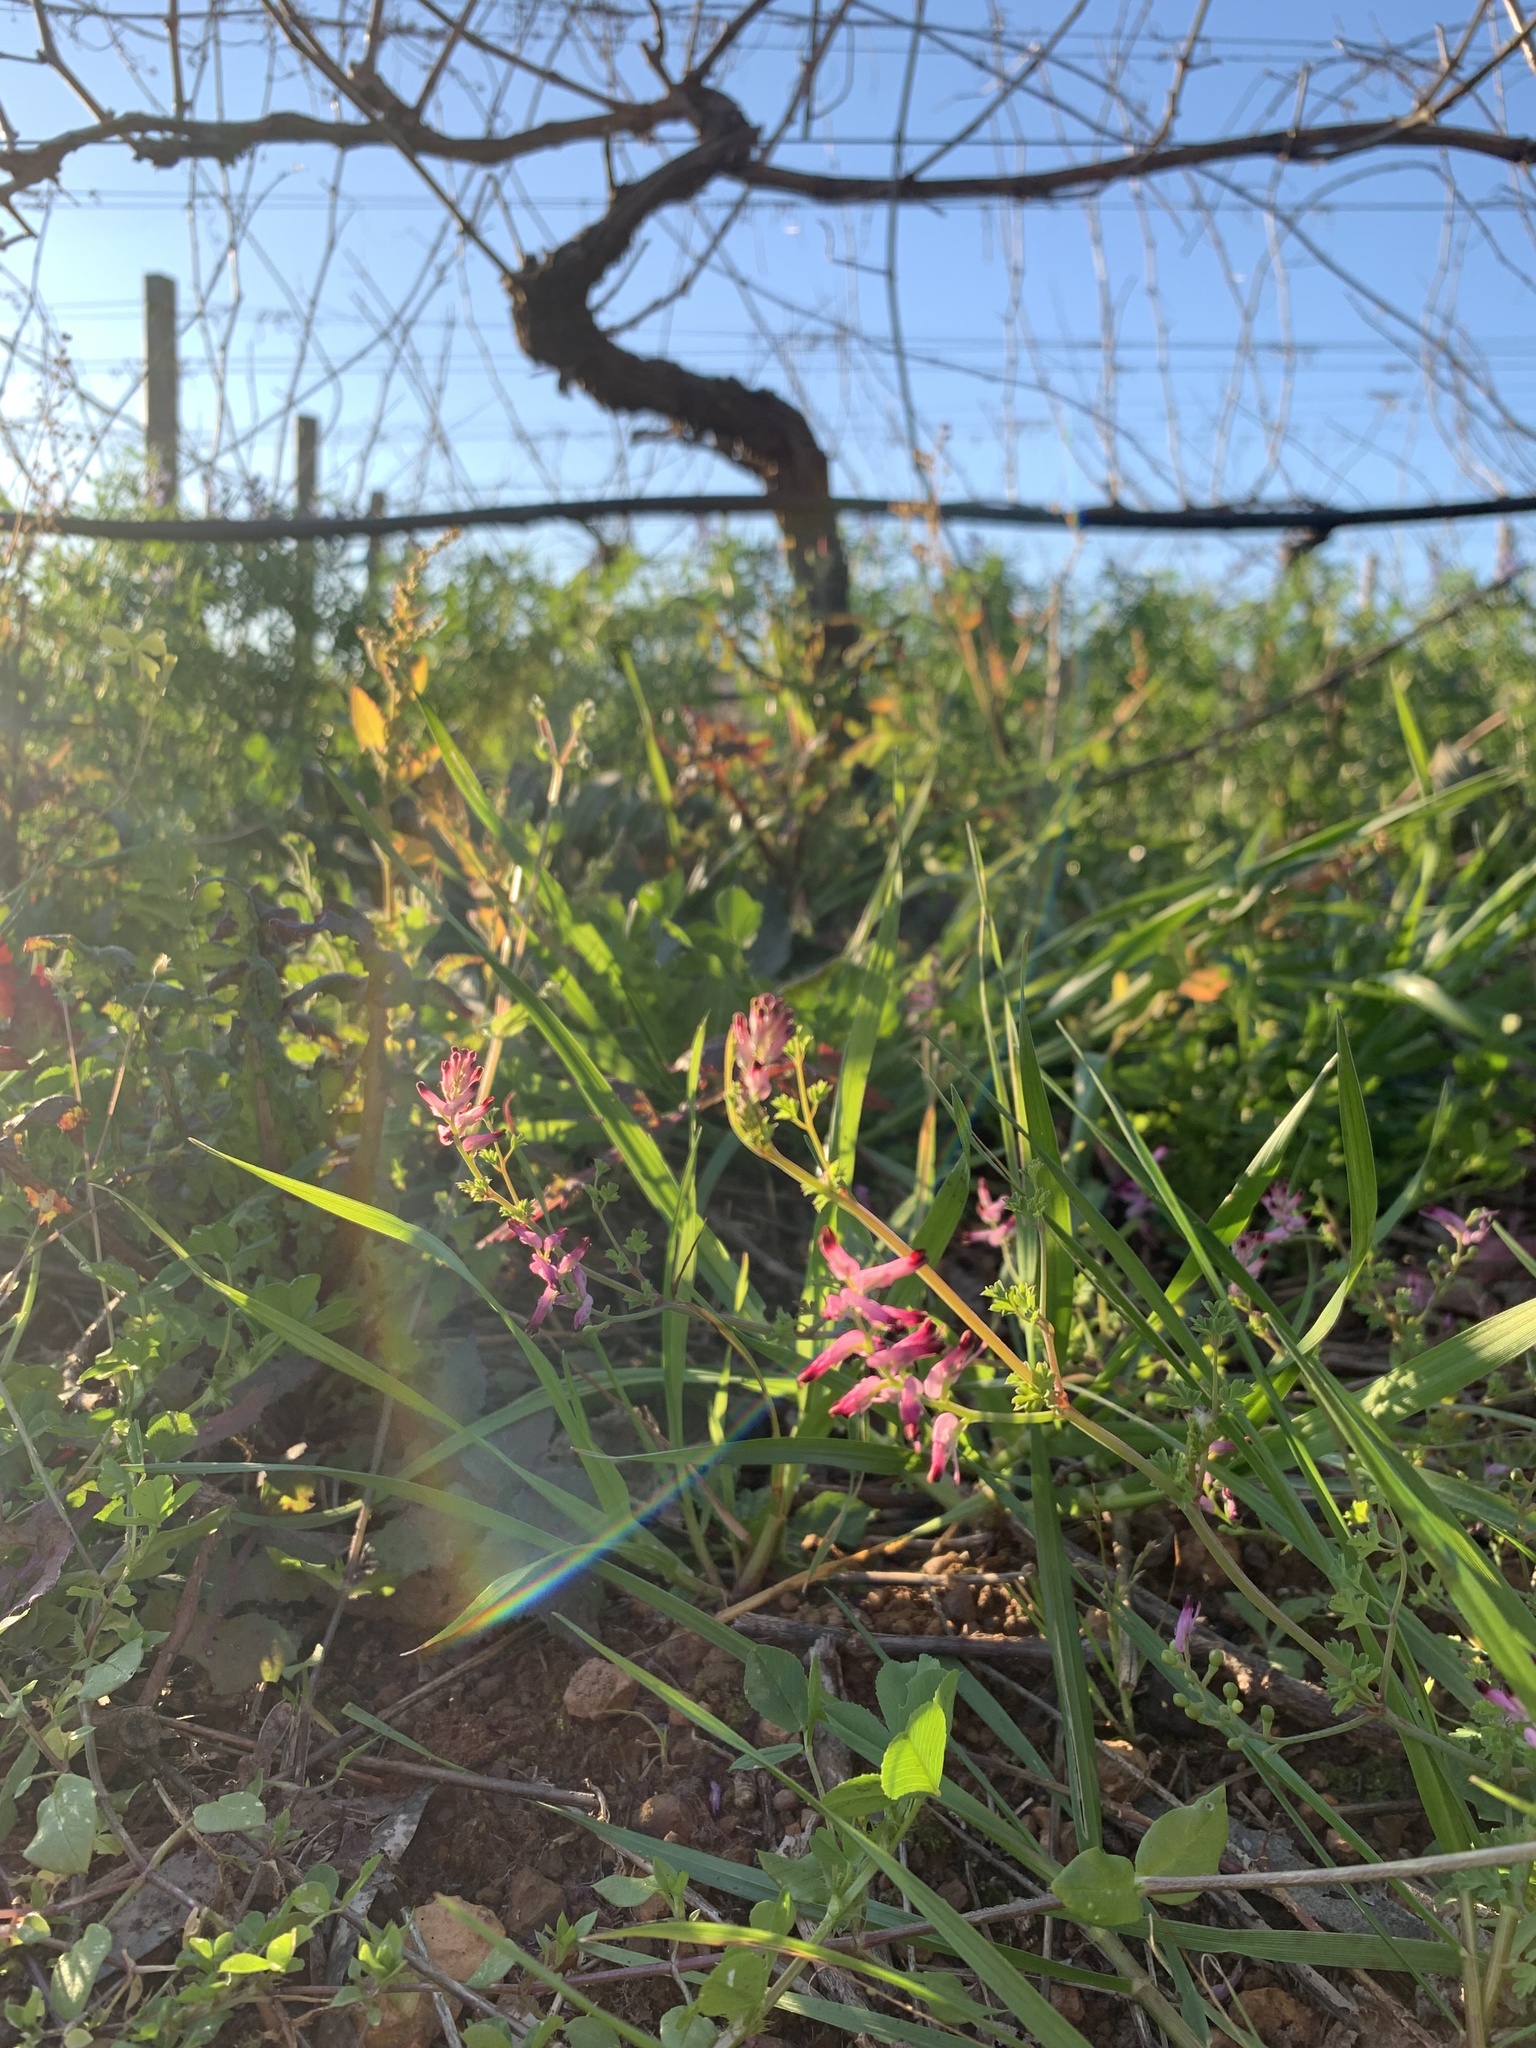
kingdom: Plantae
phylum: Tracheophyta
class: Magnoliopsida
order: Ranunculales
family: Papaveraceae
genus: Fumaria
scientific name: Fumaria muralis
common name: Common ramping-fumitory
